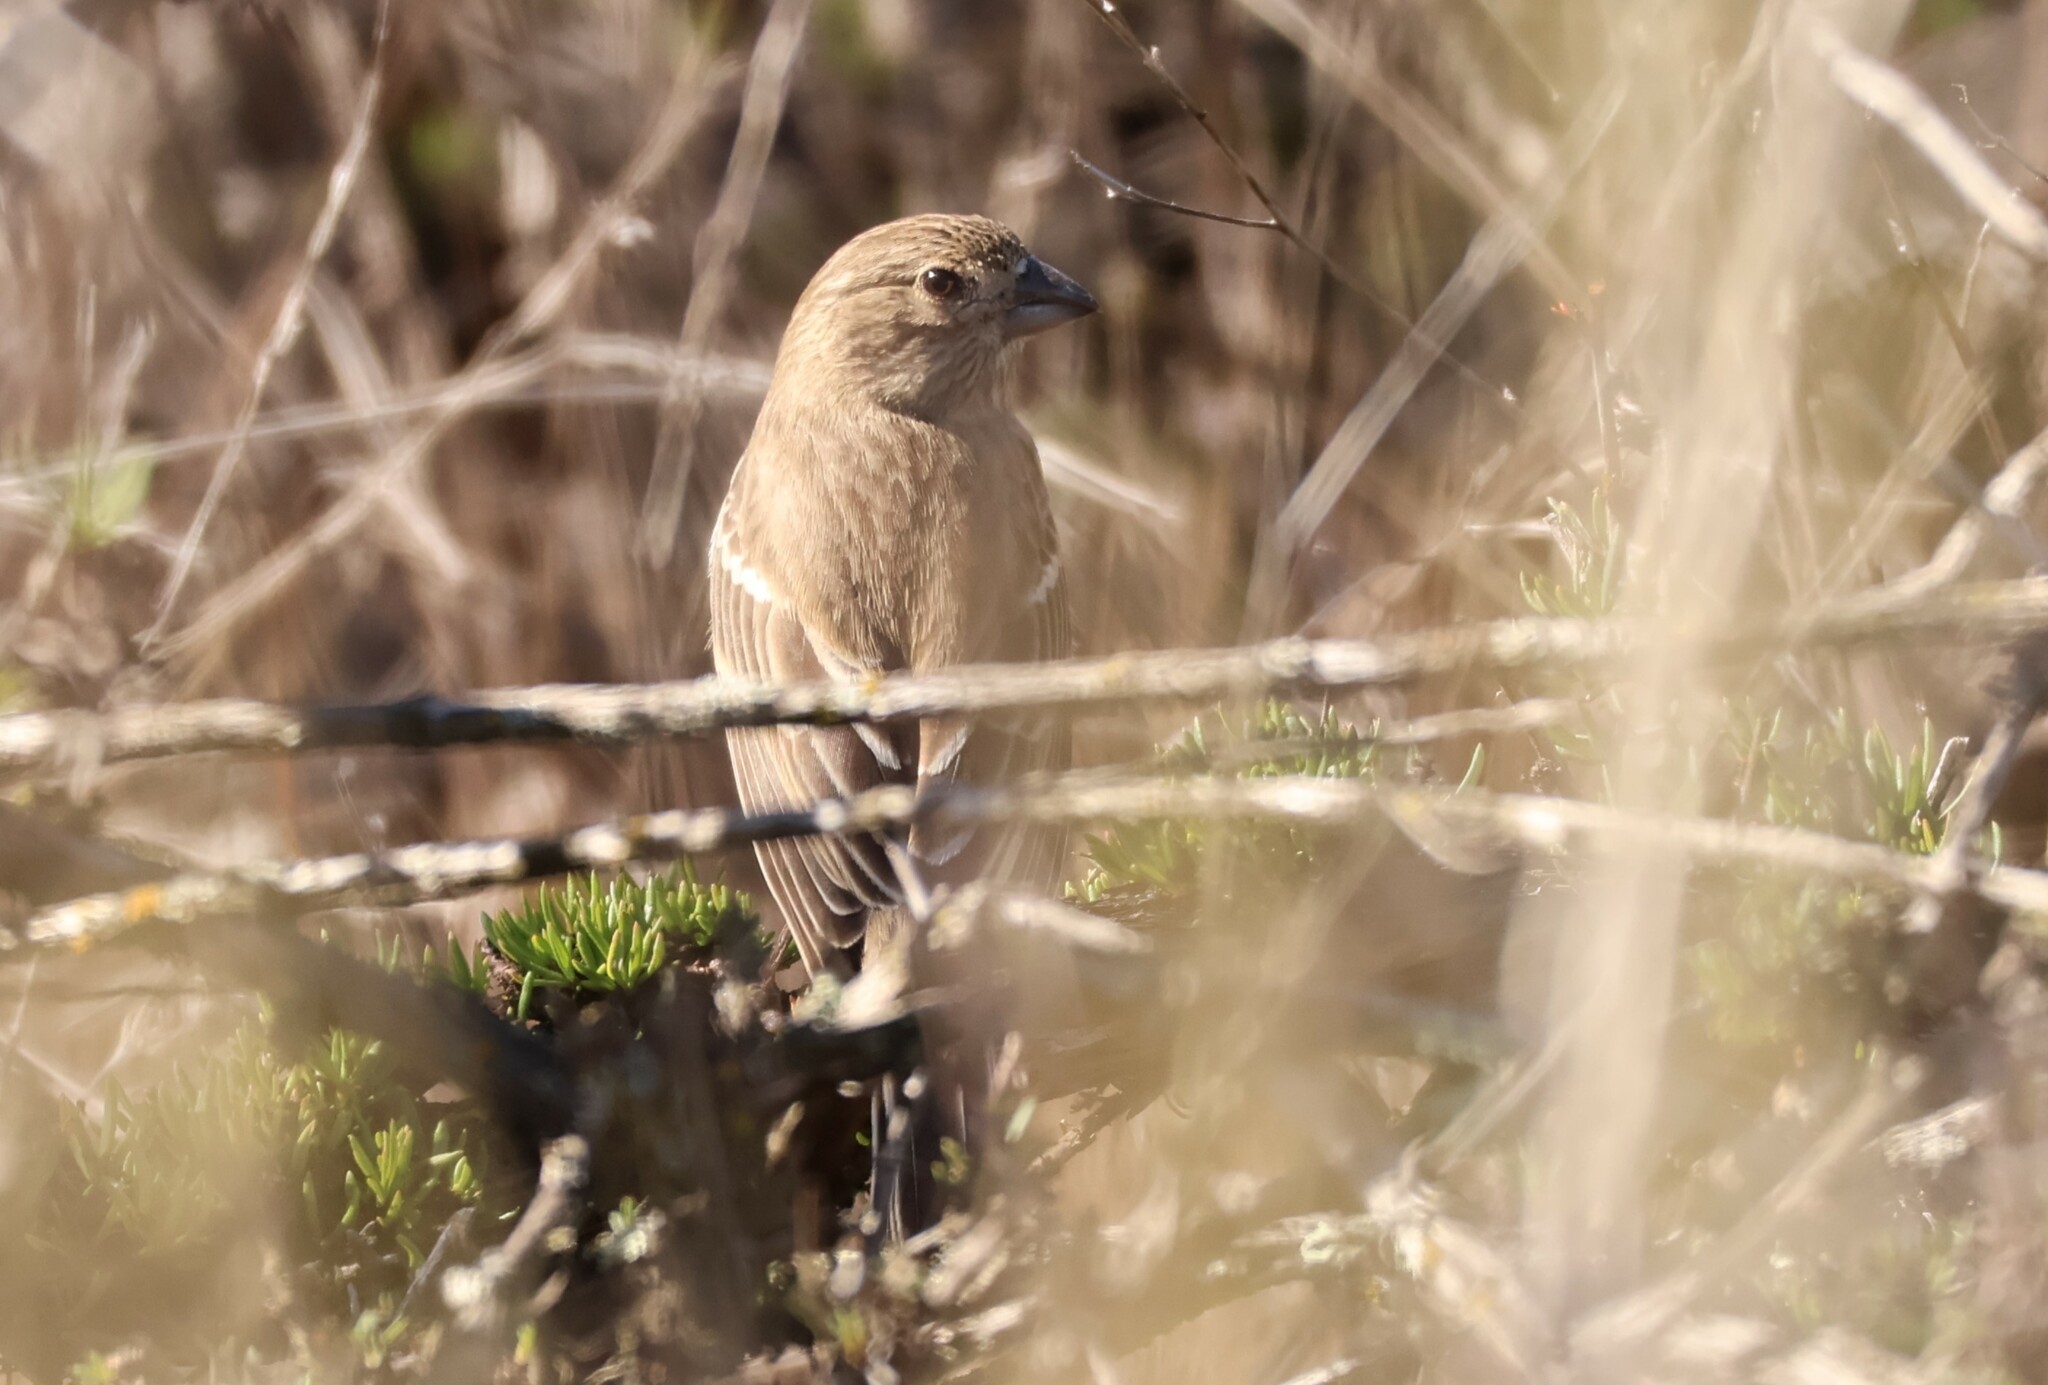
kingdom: Animalia
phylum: Chordata
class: Aves
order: Passeriformes
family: Fringillidae
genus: Haemorhous
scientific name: Haemorhous mexicanus
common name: House finch
